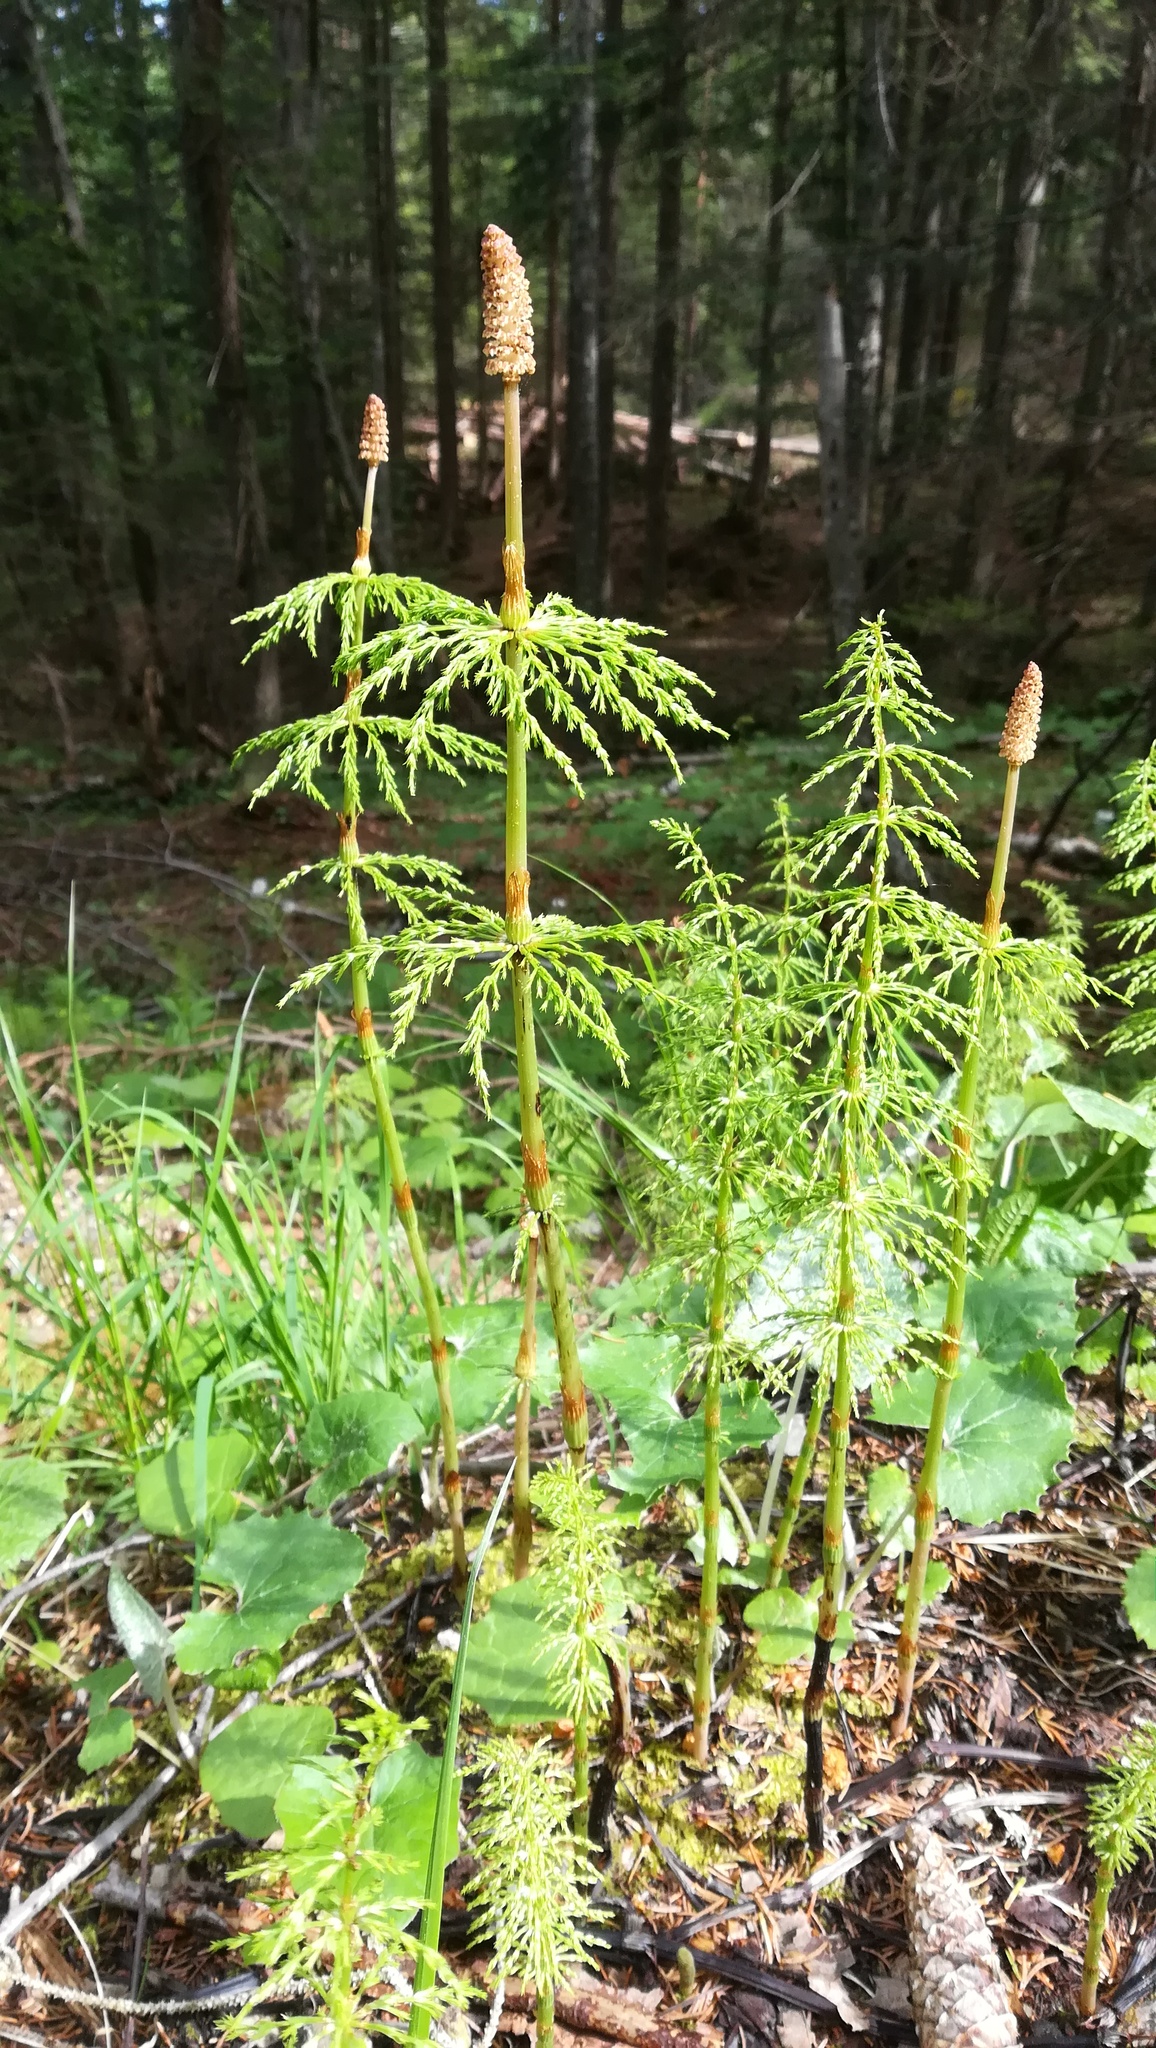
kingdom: Plantae
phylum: Tracheophyta
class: Polypodiopsida
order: Equisetales
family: Equisetaceae
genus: Equisetum
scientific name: Equisetum sylvaticum
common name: Wood horsetail
